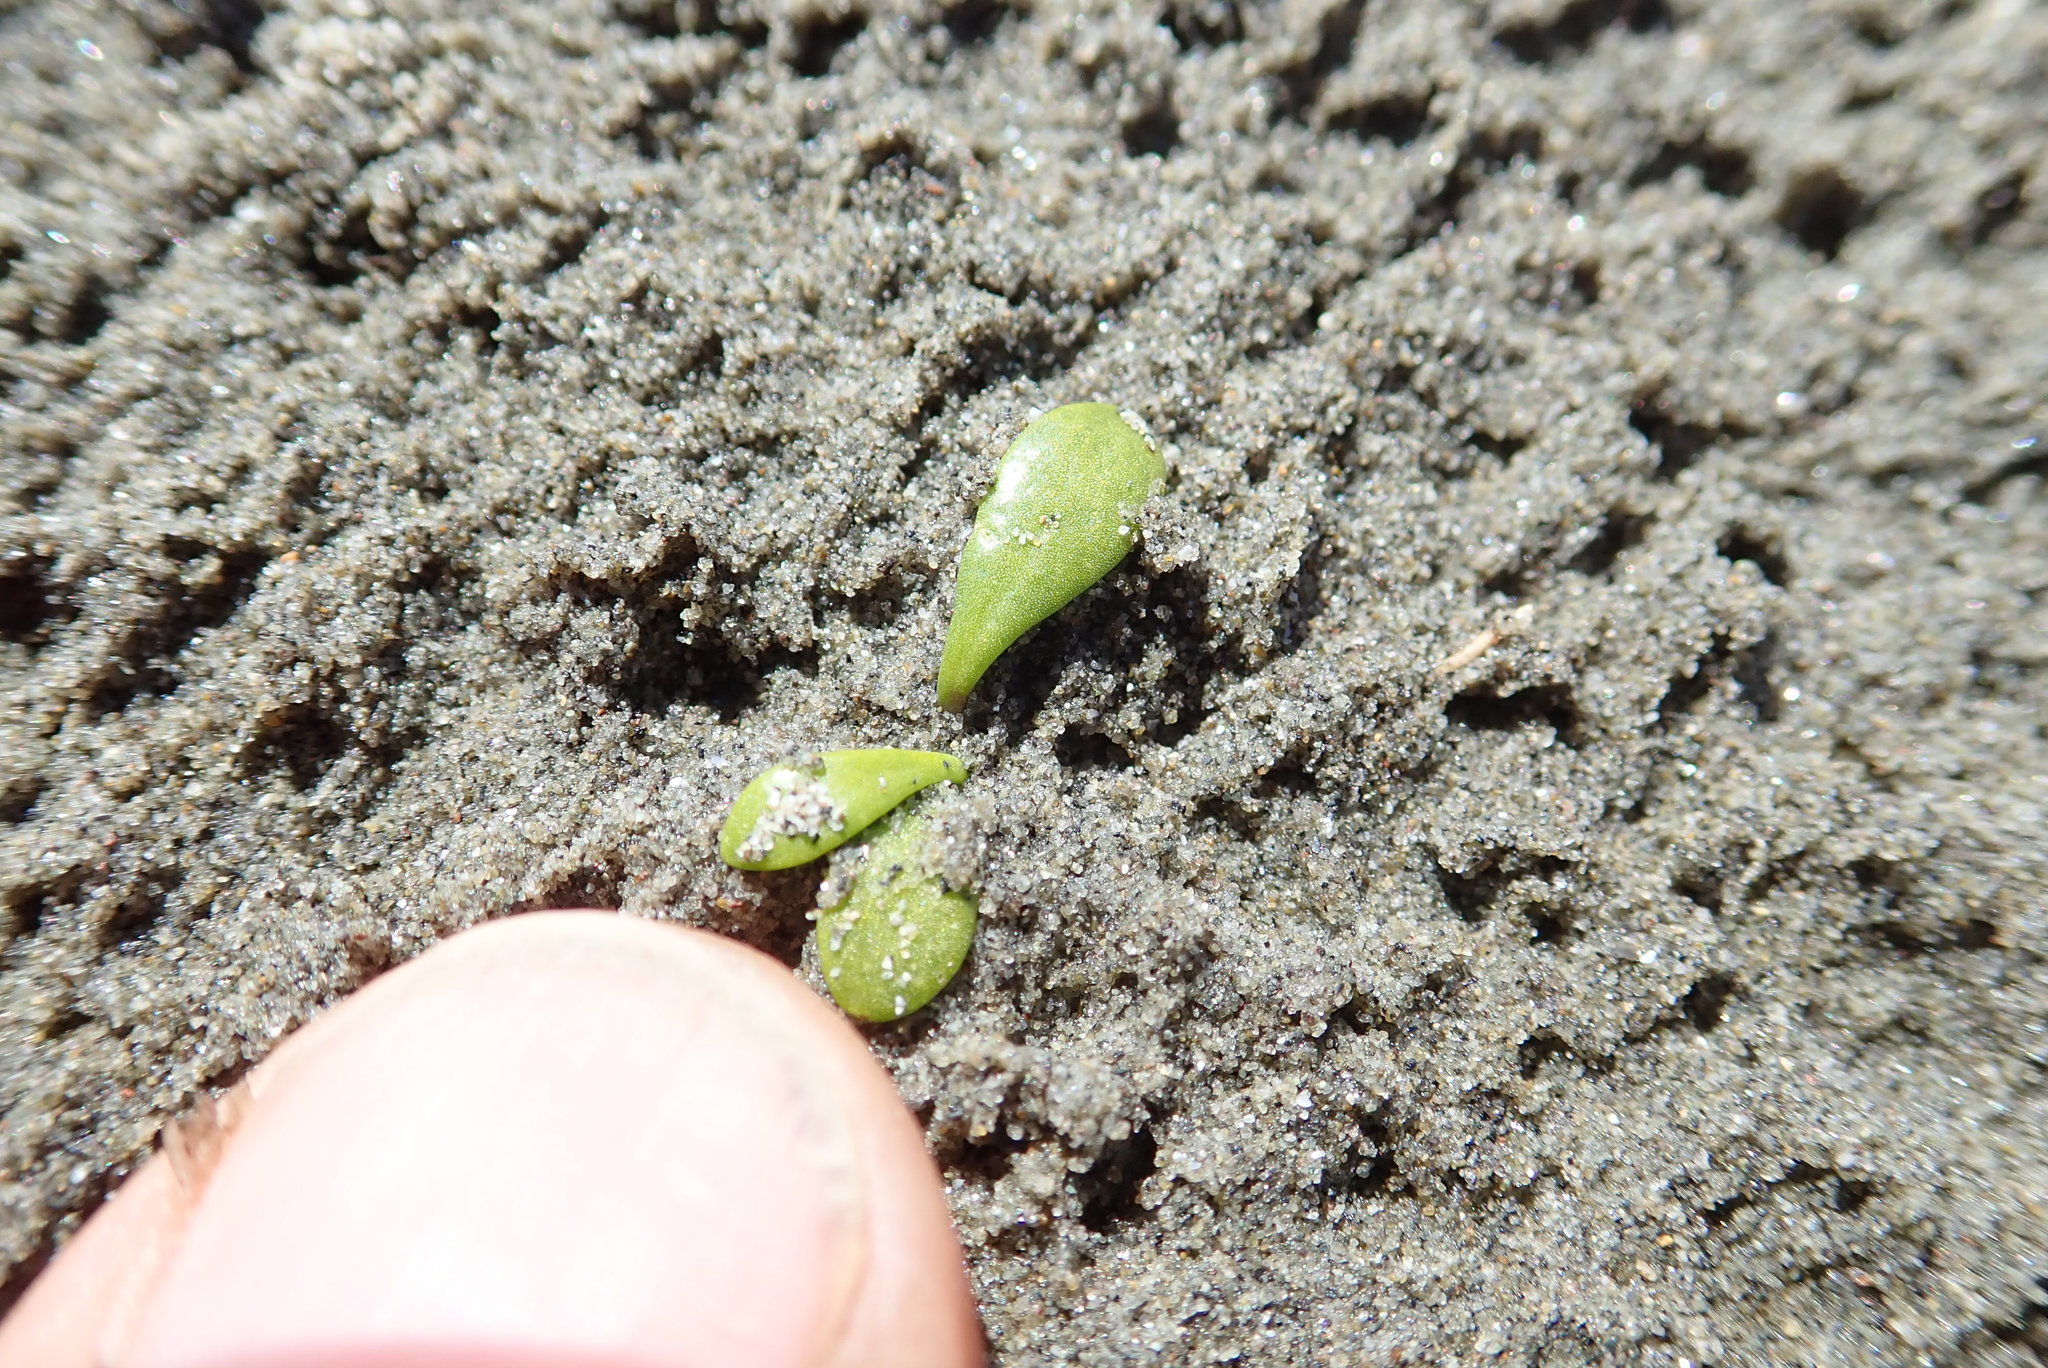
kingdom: Plantae
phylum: Tracheophyta
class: Magnoliopsida
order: Asterales
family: Goodeniaceae
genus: Goodenia
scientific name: Goodenia radicans
